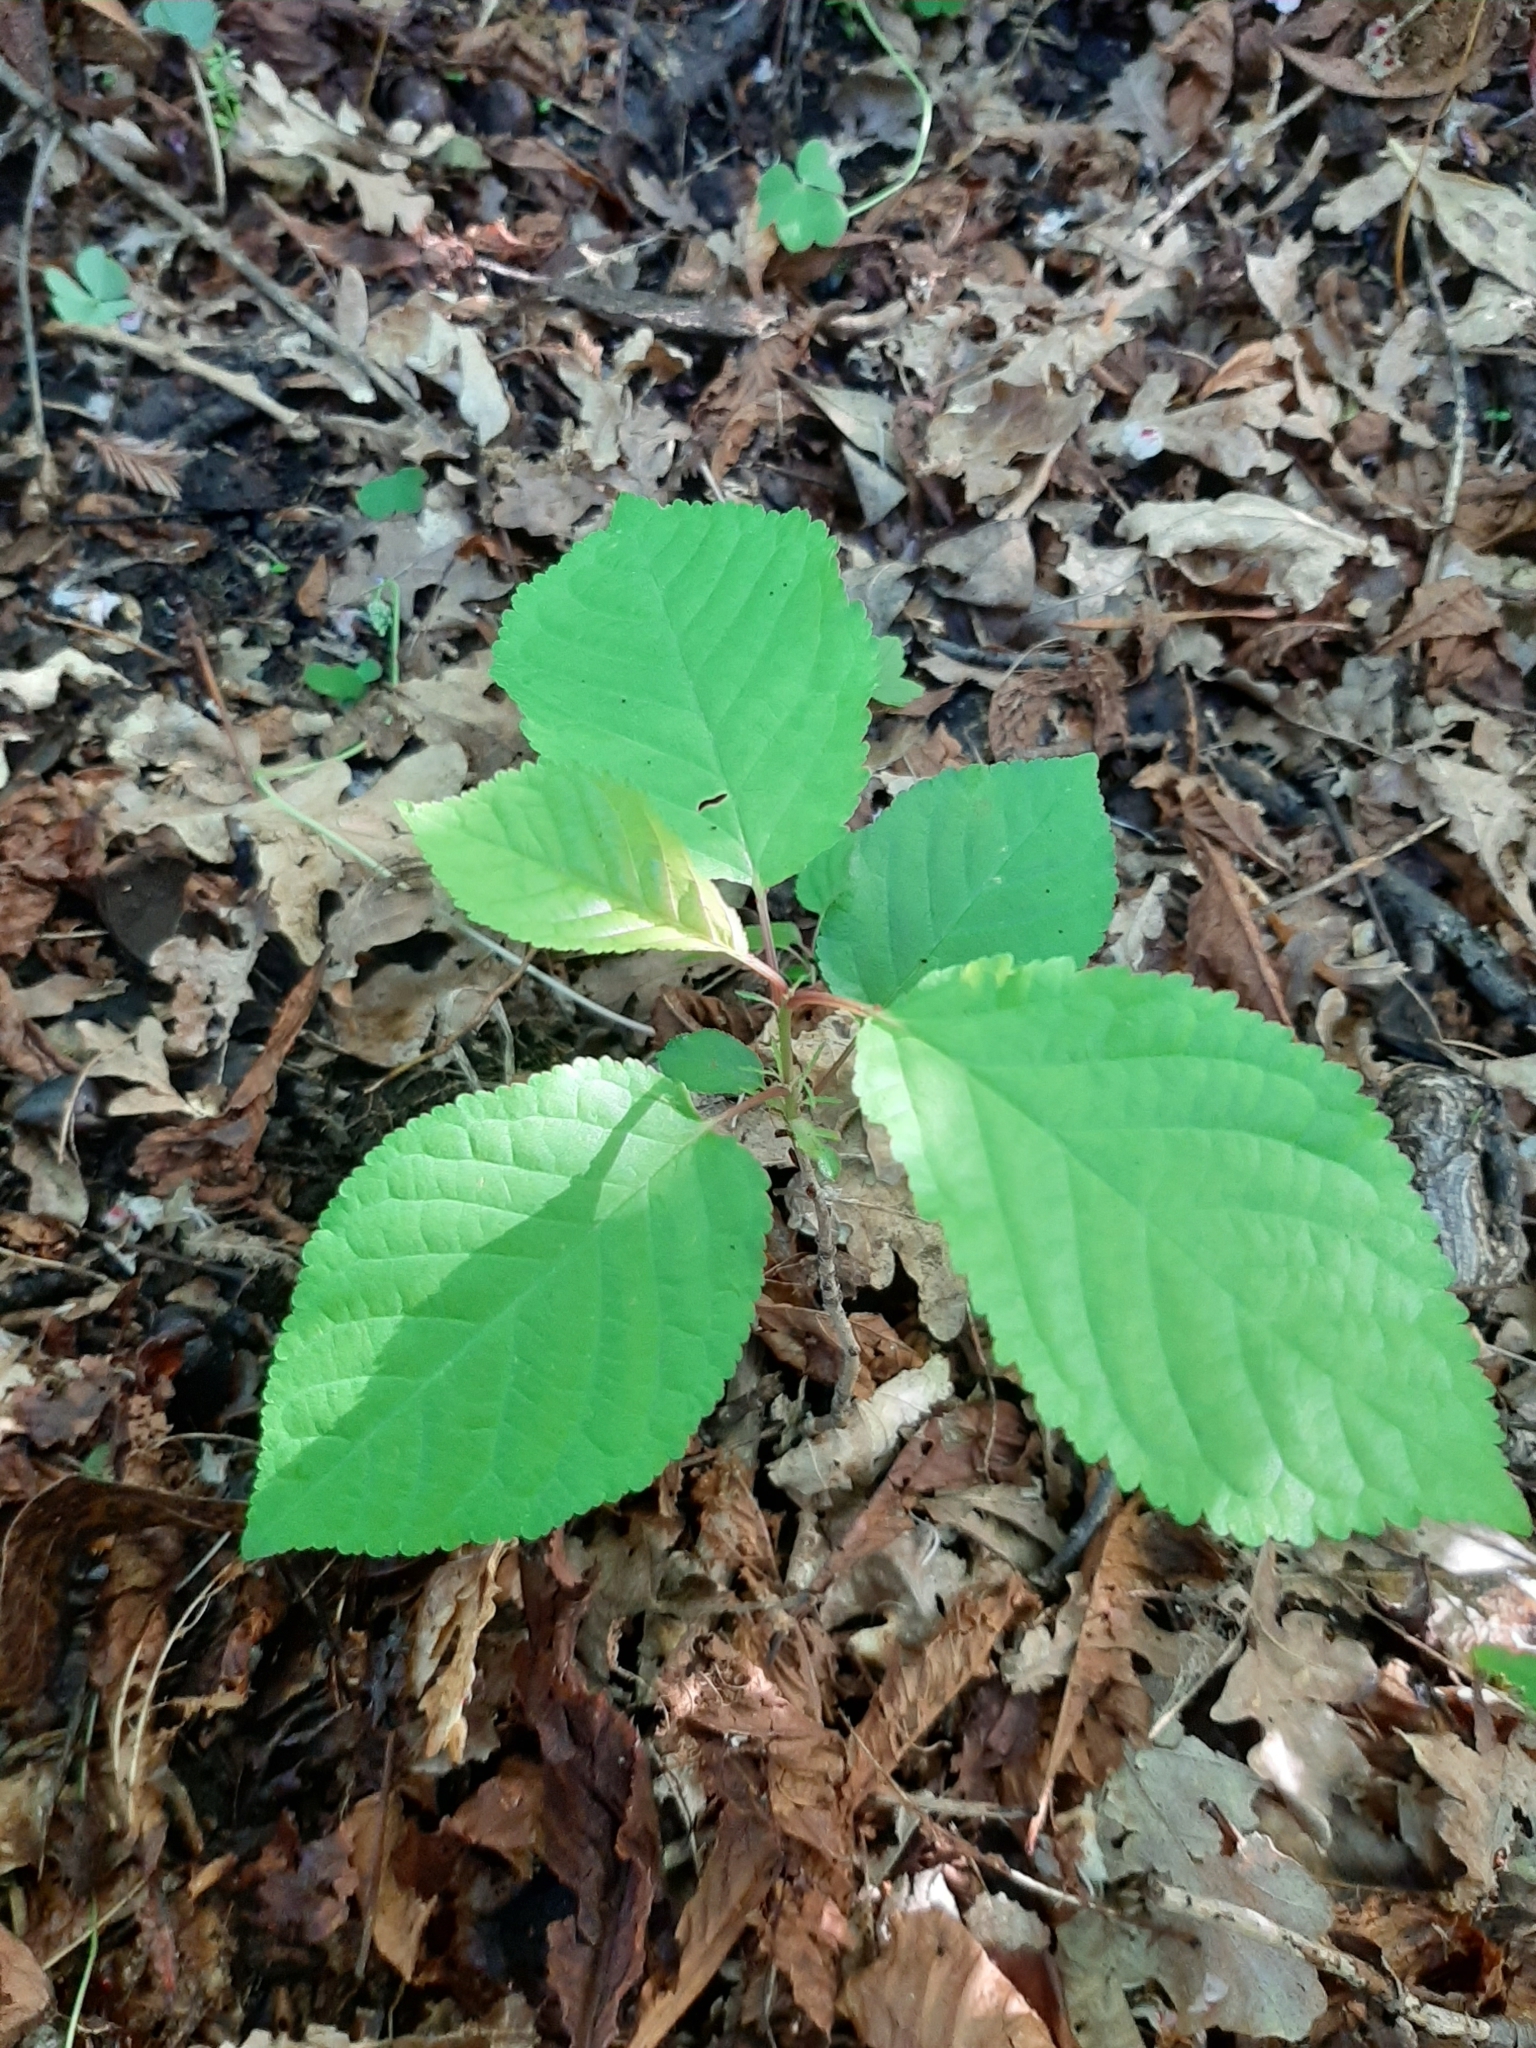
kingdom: Plantae
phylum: Tracheophyta
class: Magnoliopsida
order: Rosales
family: Rosaceae
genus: Prunus
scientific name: Prunus avium
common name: Sweet cherry
